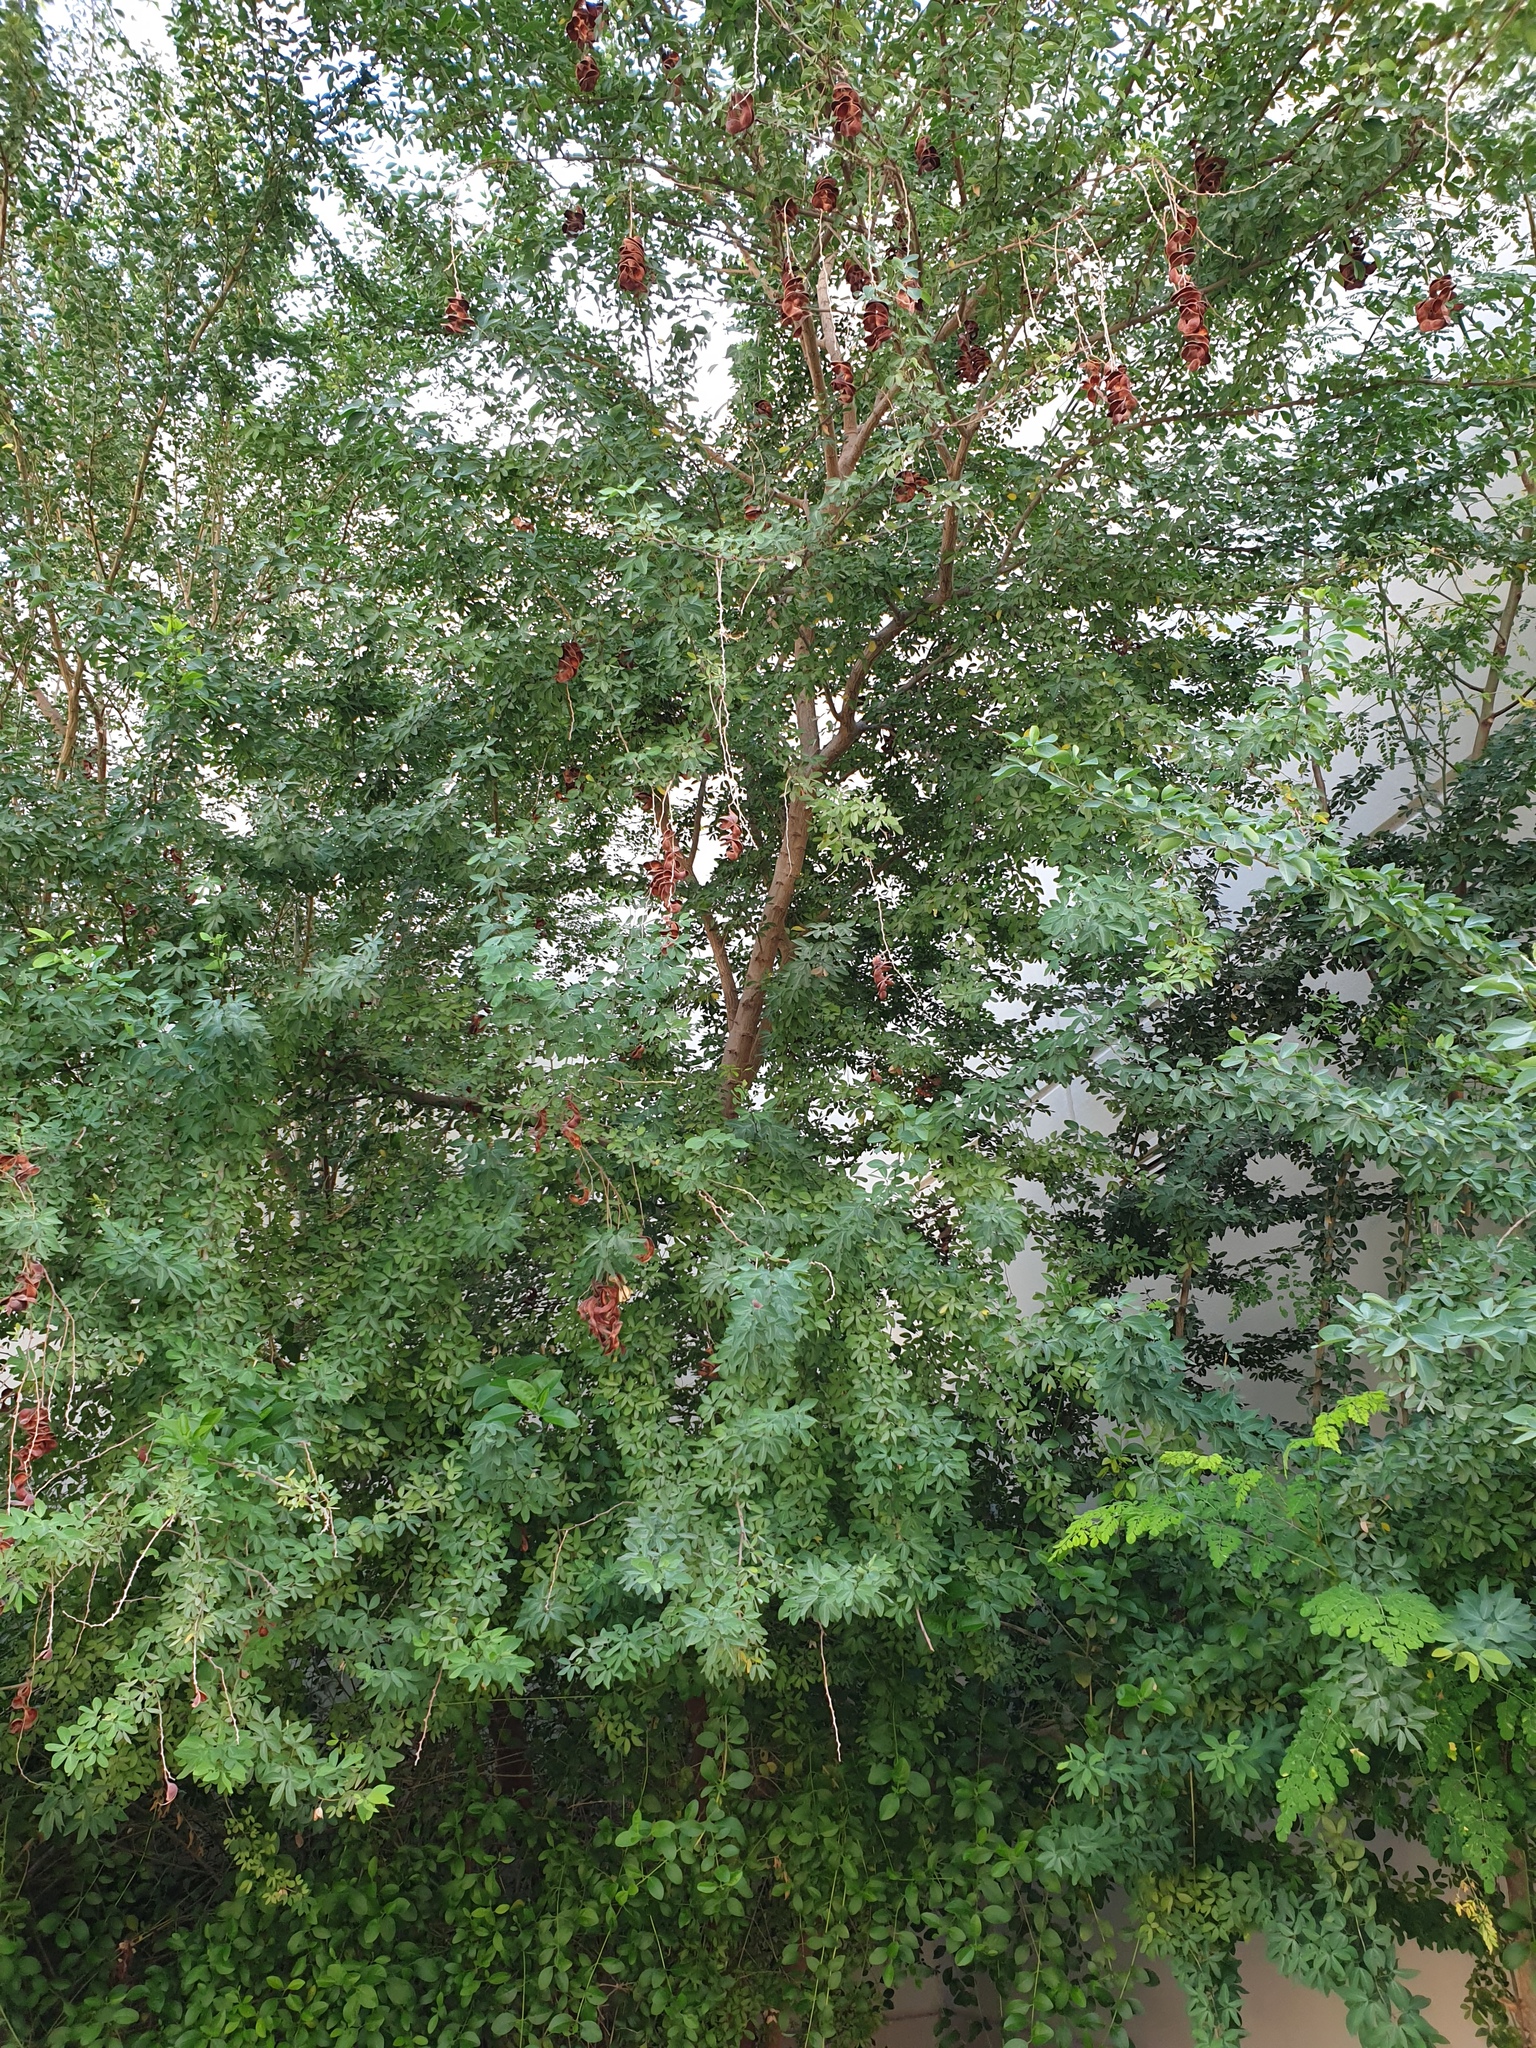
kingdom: Plantae
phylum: Tracheophyta
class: Magnoliopsida
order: Fabales
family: Fabaceae
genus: Pithecellobium
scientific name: Pithecellobium dulce
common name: Monkeypod
